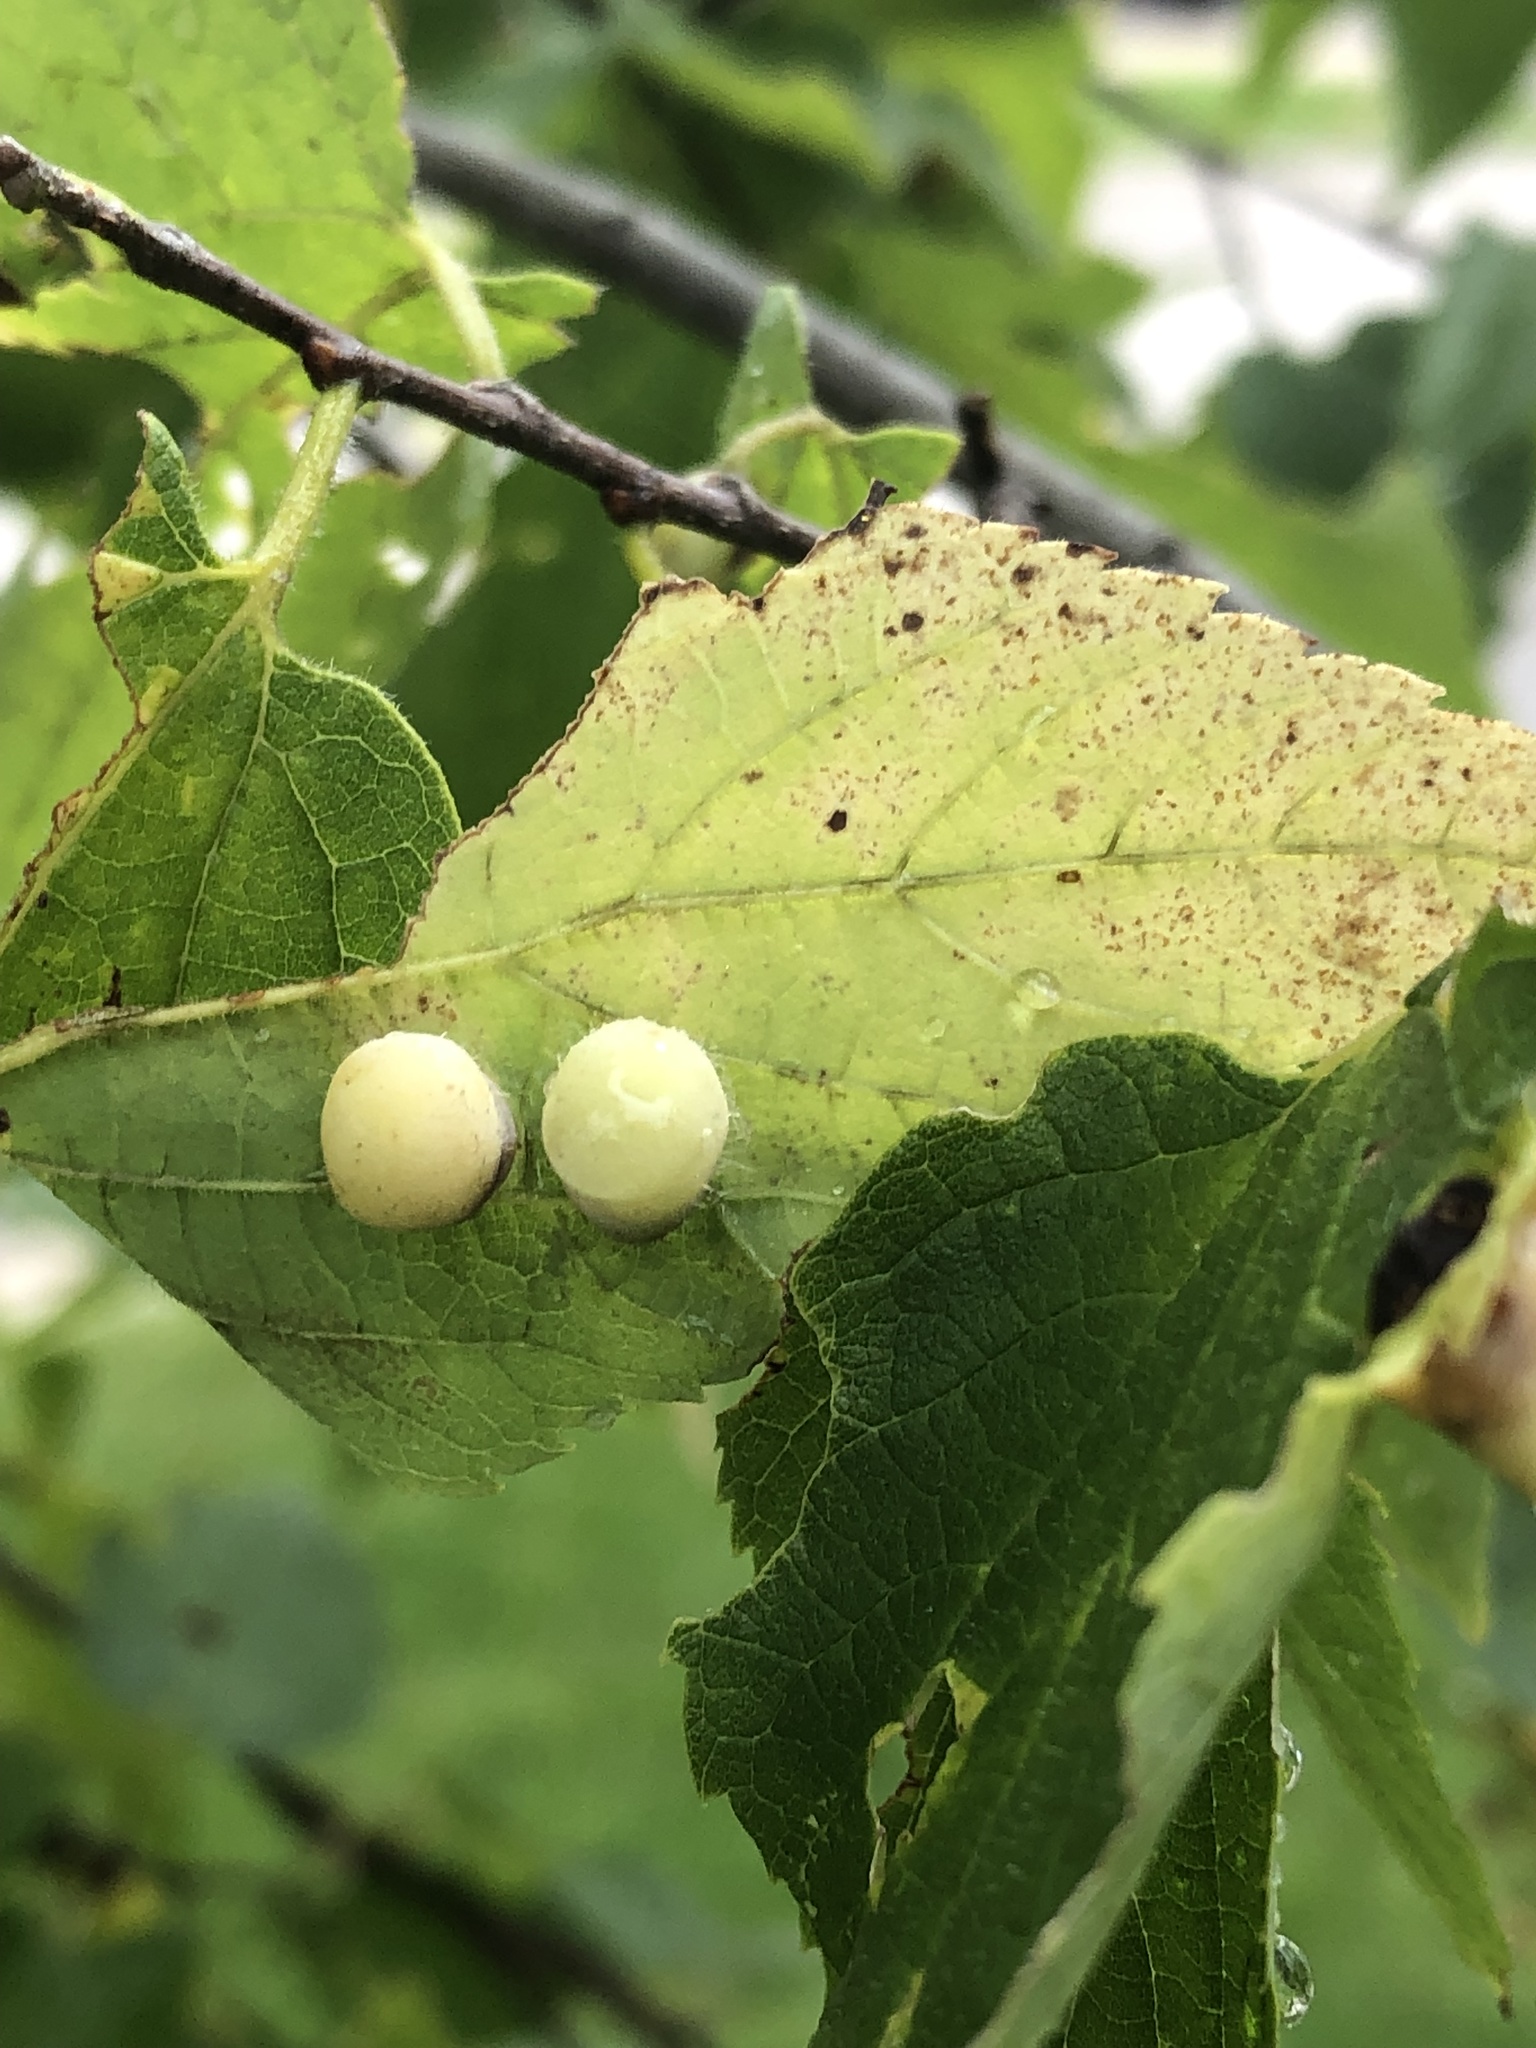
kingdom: Animalia
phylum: Arthropoda
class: Insecta
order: Hemiptera
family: Aphalaridae
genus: Pachypsylla
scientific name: Pachypsylla celtidismamma
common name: Hackberry nipplegall psyllid
